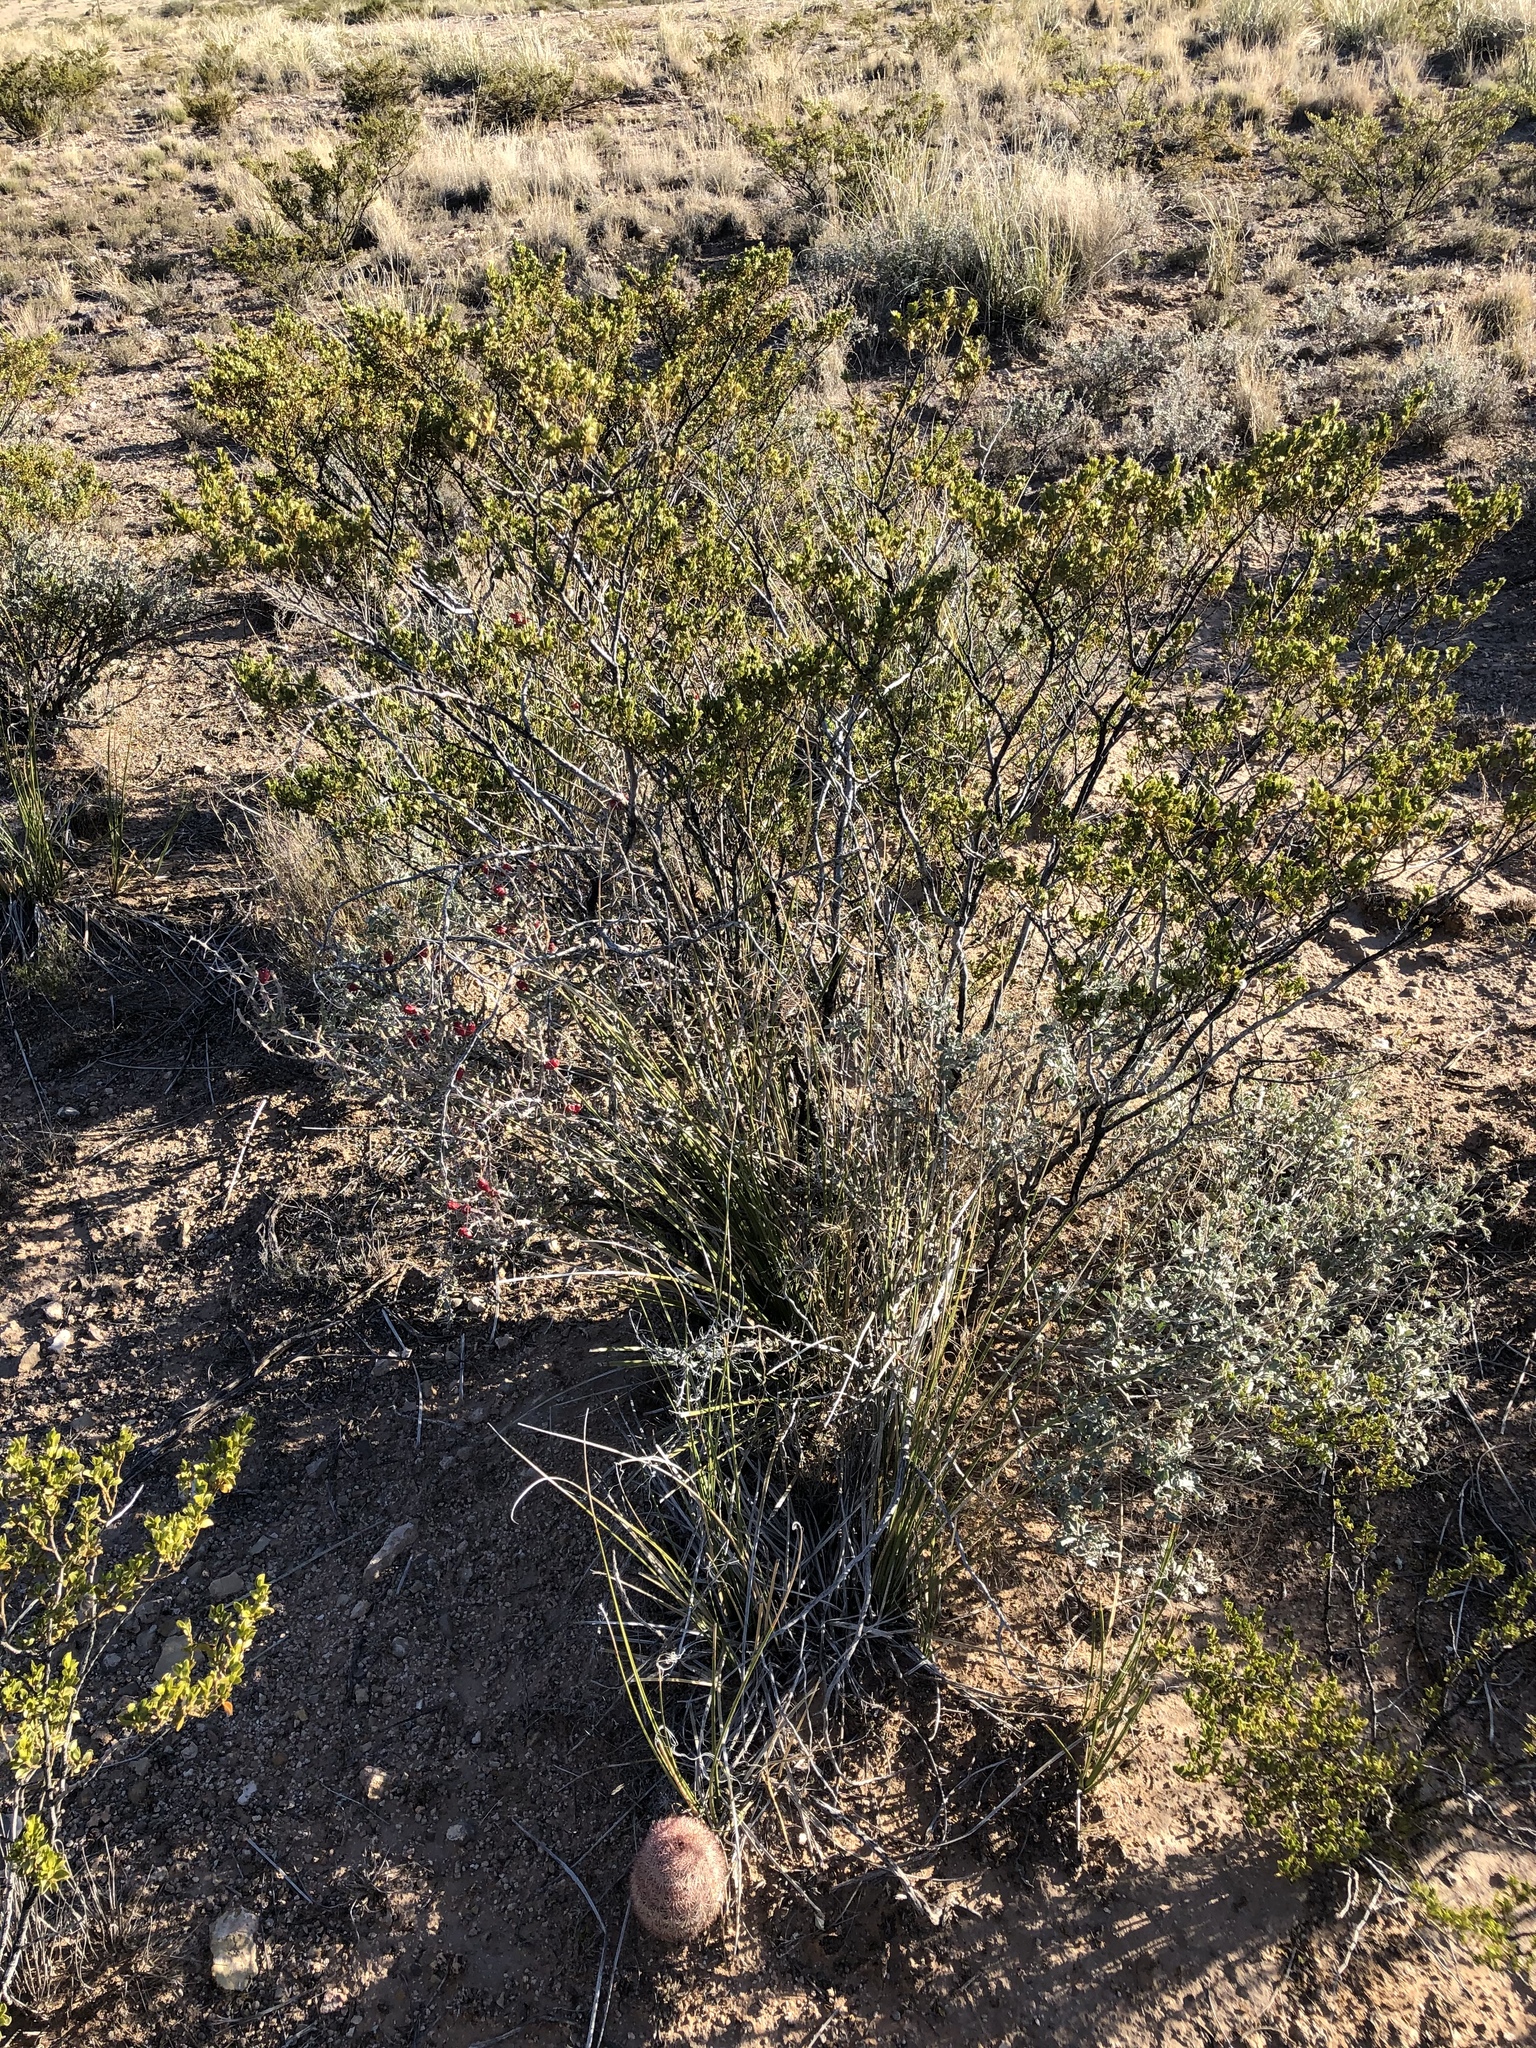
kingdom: Plantae
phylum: Tracheophyta
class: Magnoliopsida
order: Zygophyllales
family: Zygophyllaceae
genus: Larrea
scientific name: Larrea tridentata
